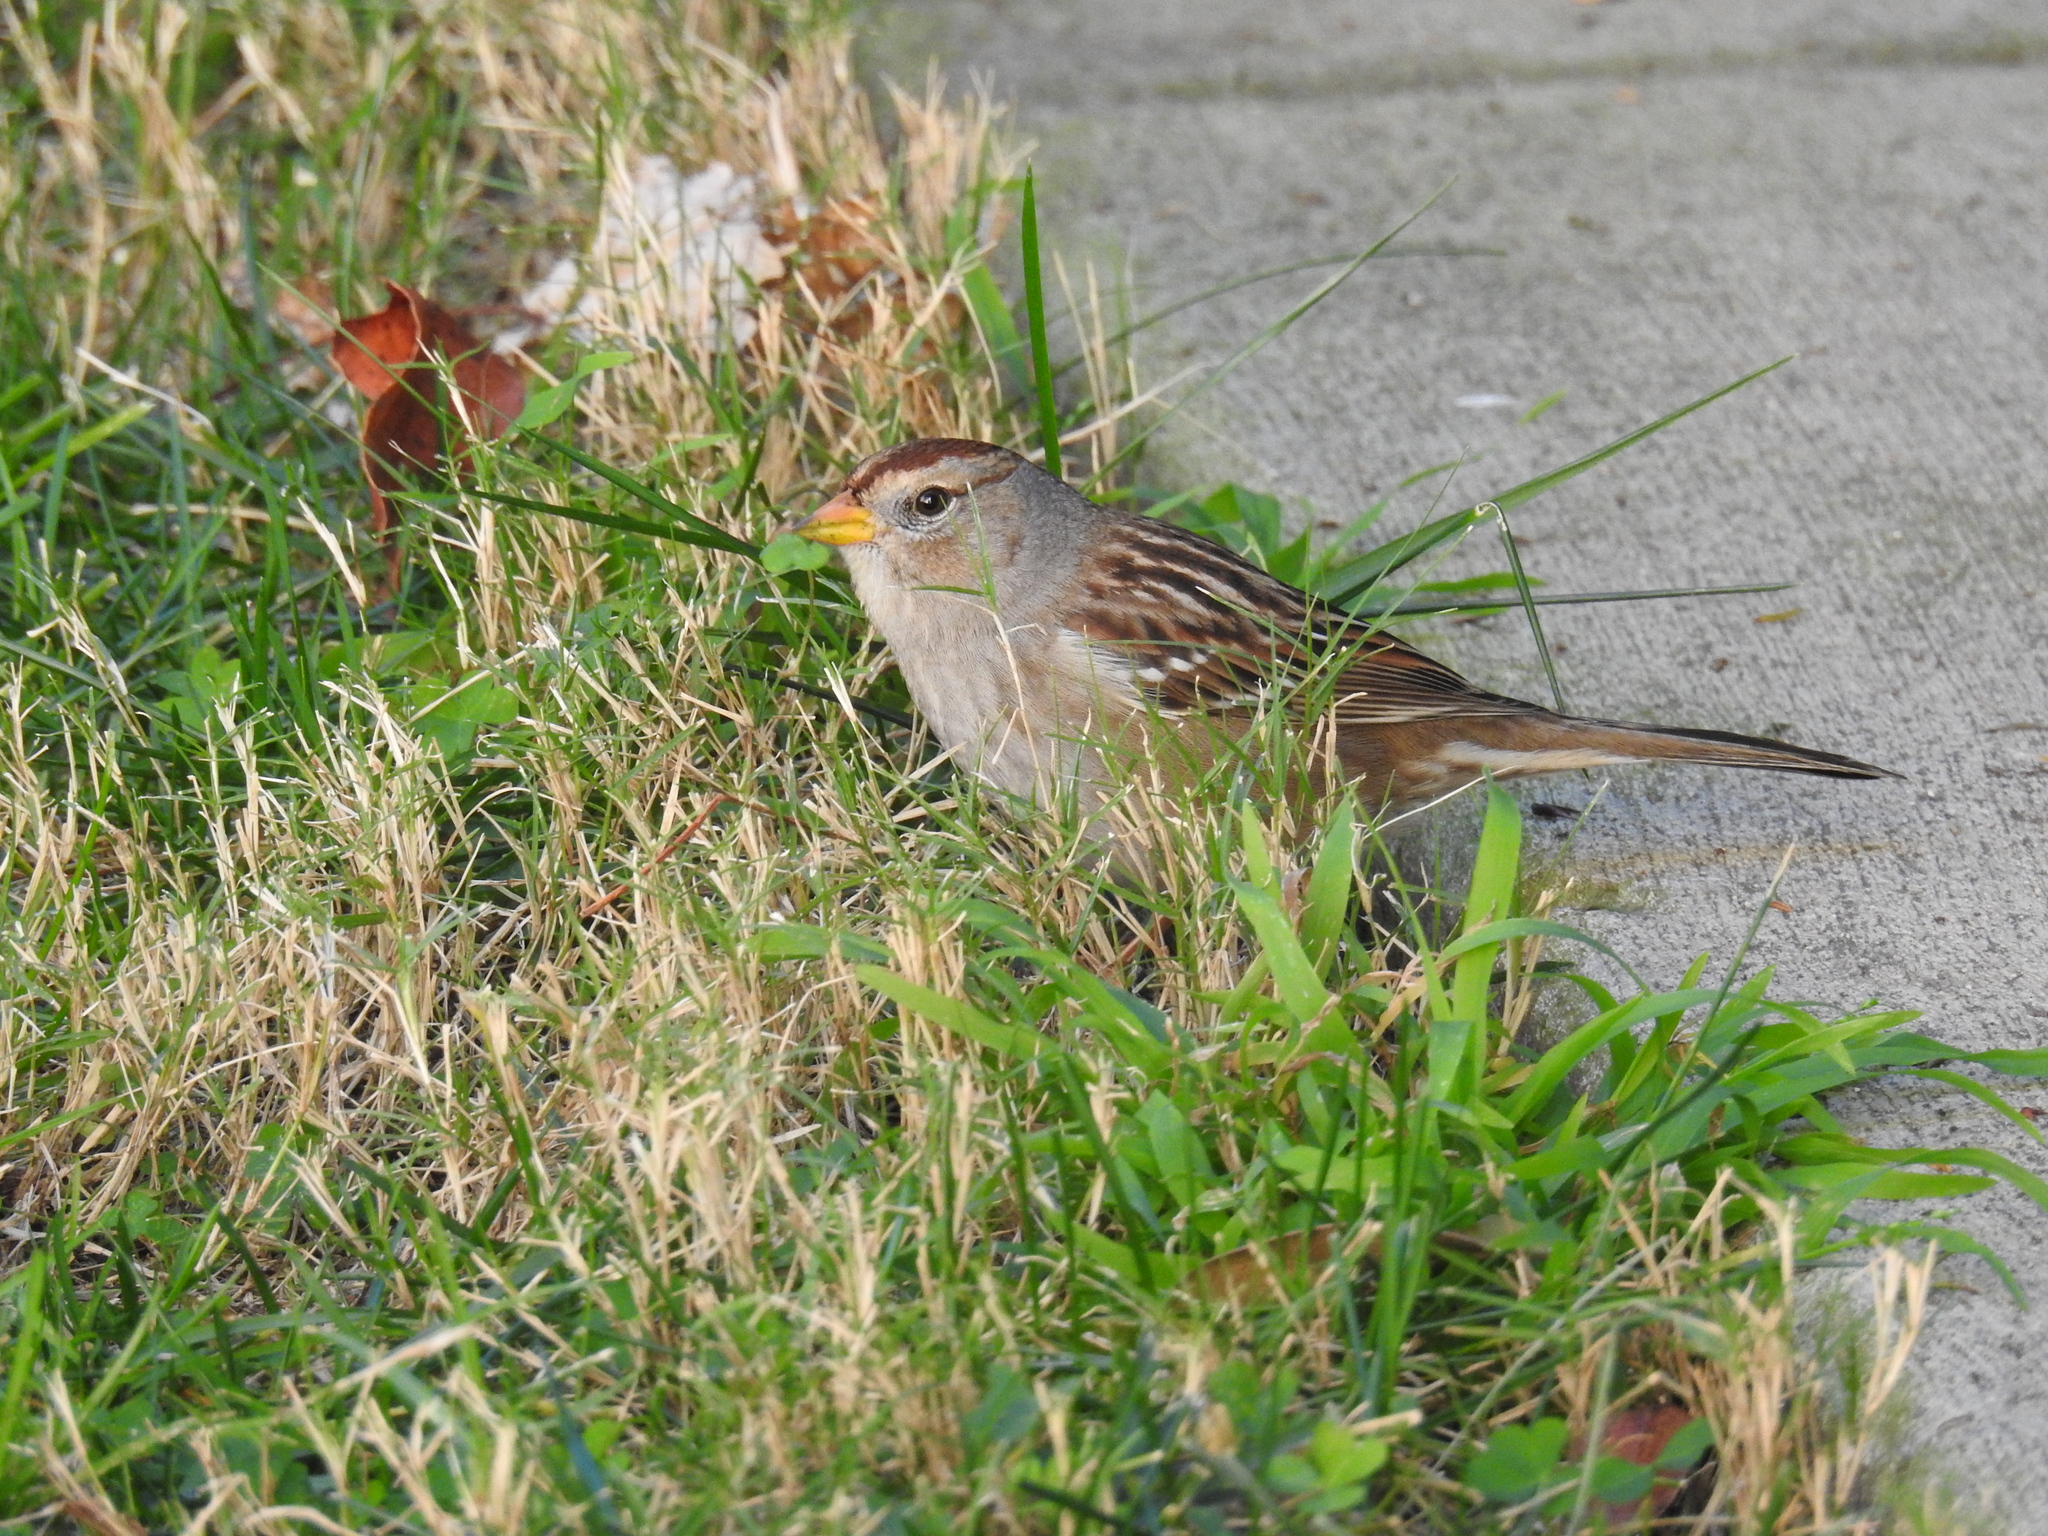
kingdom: Animalia
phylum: Chordata
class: Aves
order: Passeriformes
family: Passerellidae
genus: Zonotrichia
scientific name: Zonotrichia leucophrys
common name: White-crowned sparrow
